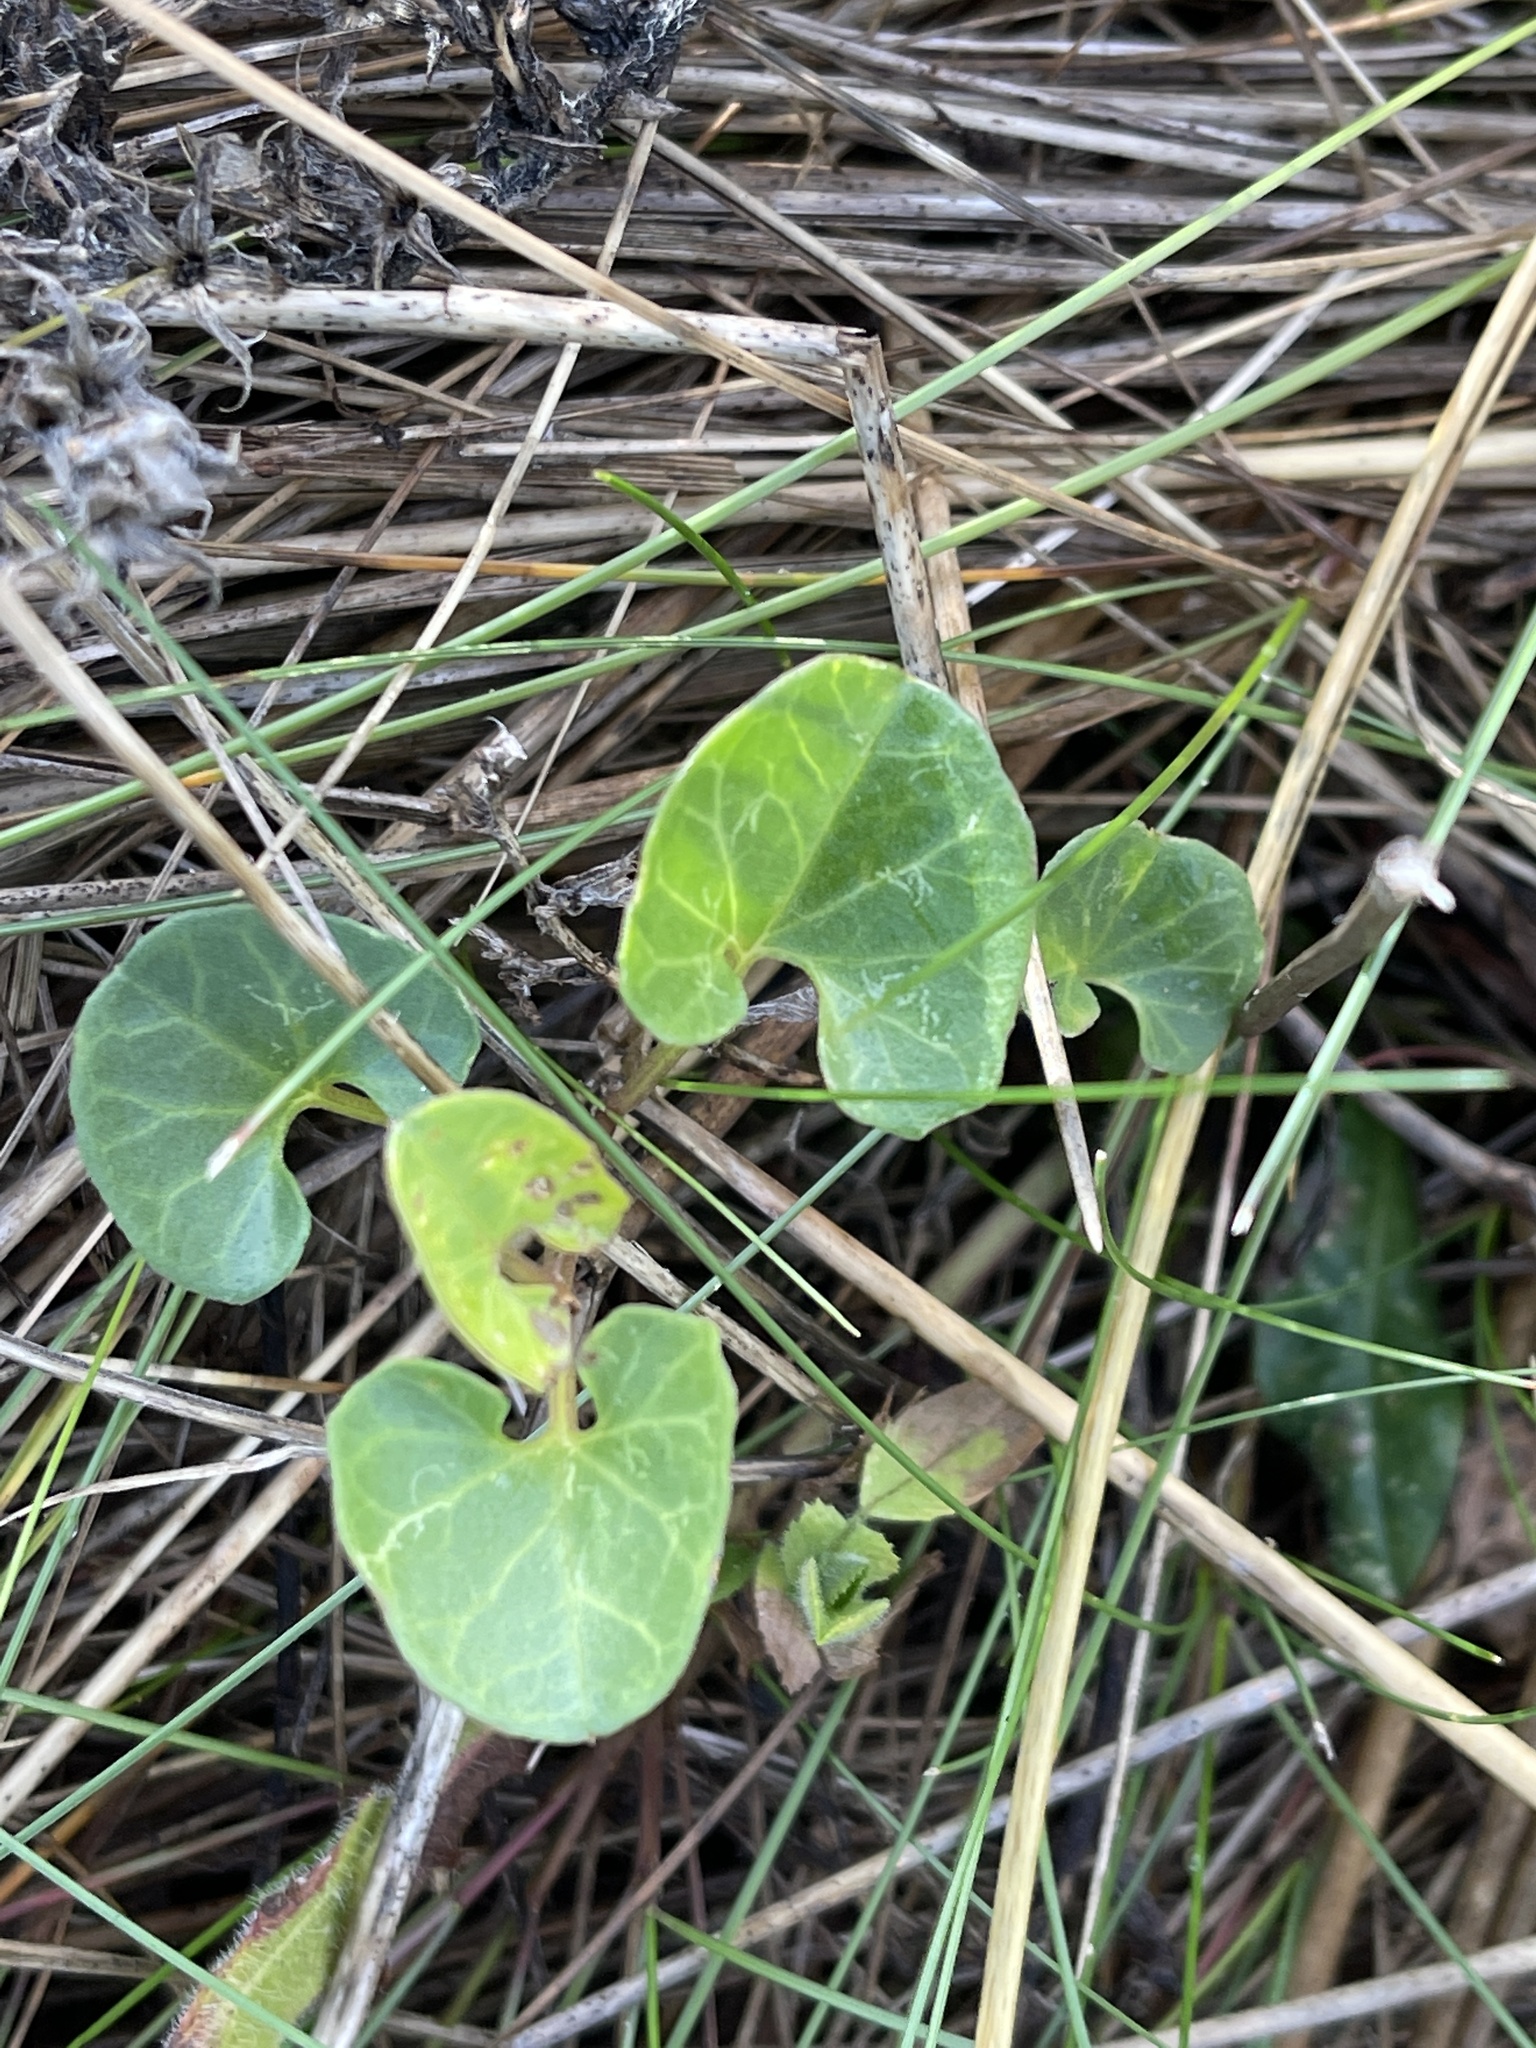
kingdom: Plantae
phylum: Tracheophyta
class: Magnoliopsida
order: Solanales
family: Convolvulaceae
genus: Calystegia
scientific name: Calystegia soldanella
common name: Sea bindweed
